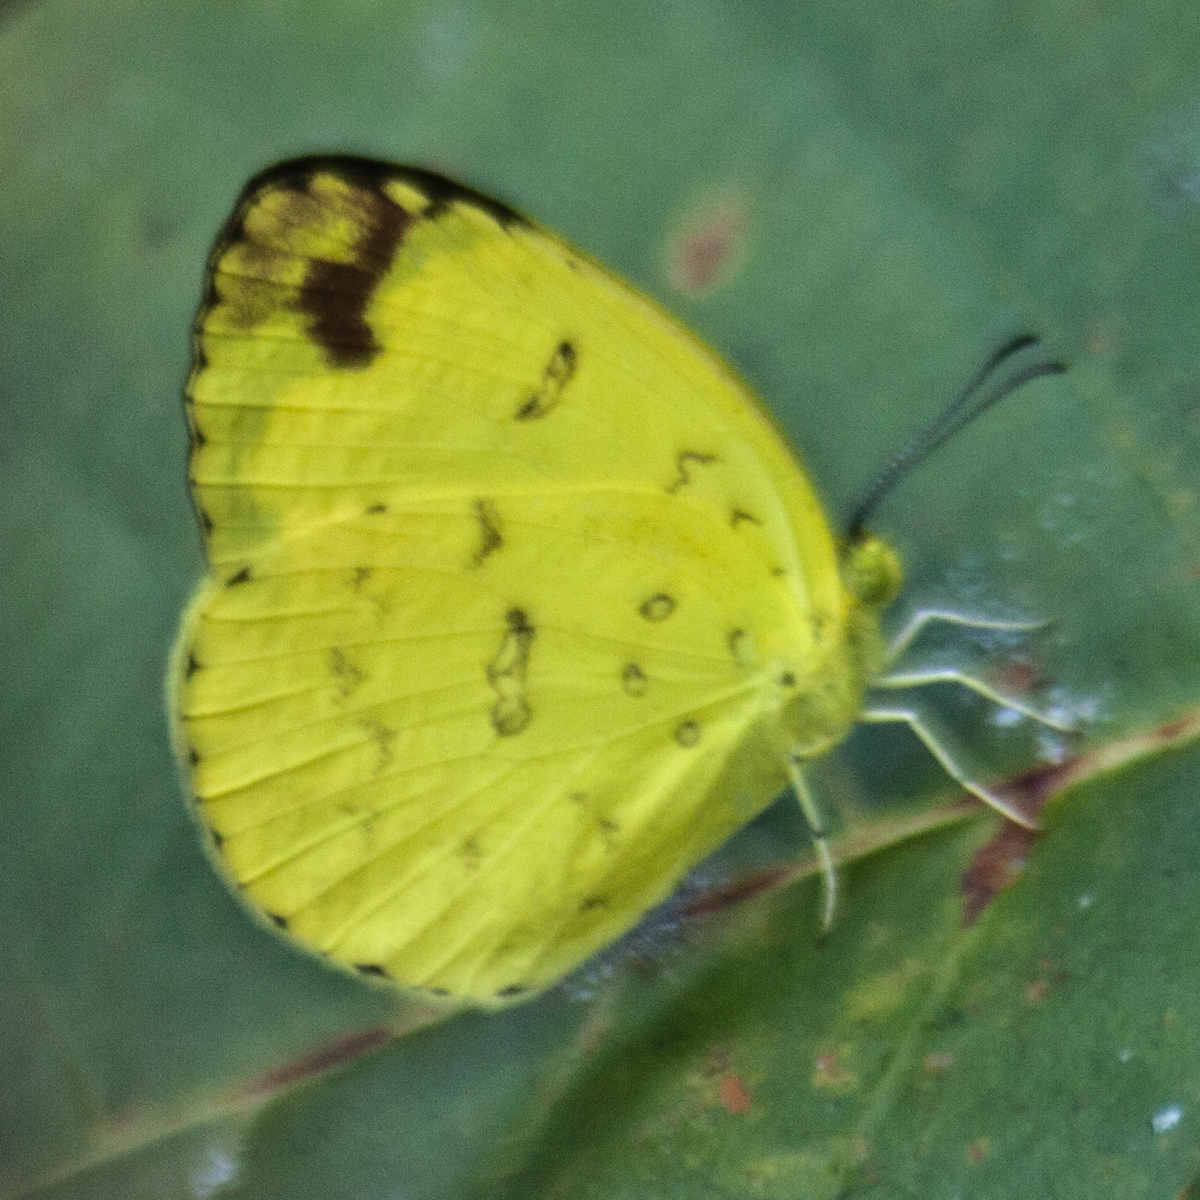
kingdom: Animalia
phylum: Arthropoda
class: Insecta
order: Lepidoptera
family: Pieridae
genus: Eurema
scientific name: Eurema blanda
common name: Three-spot grass yellow
